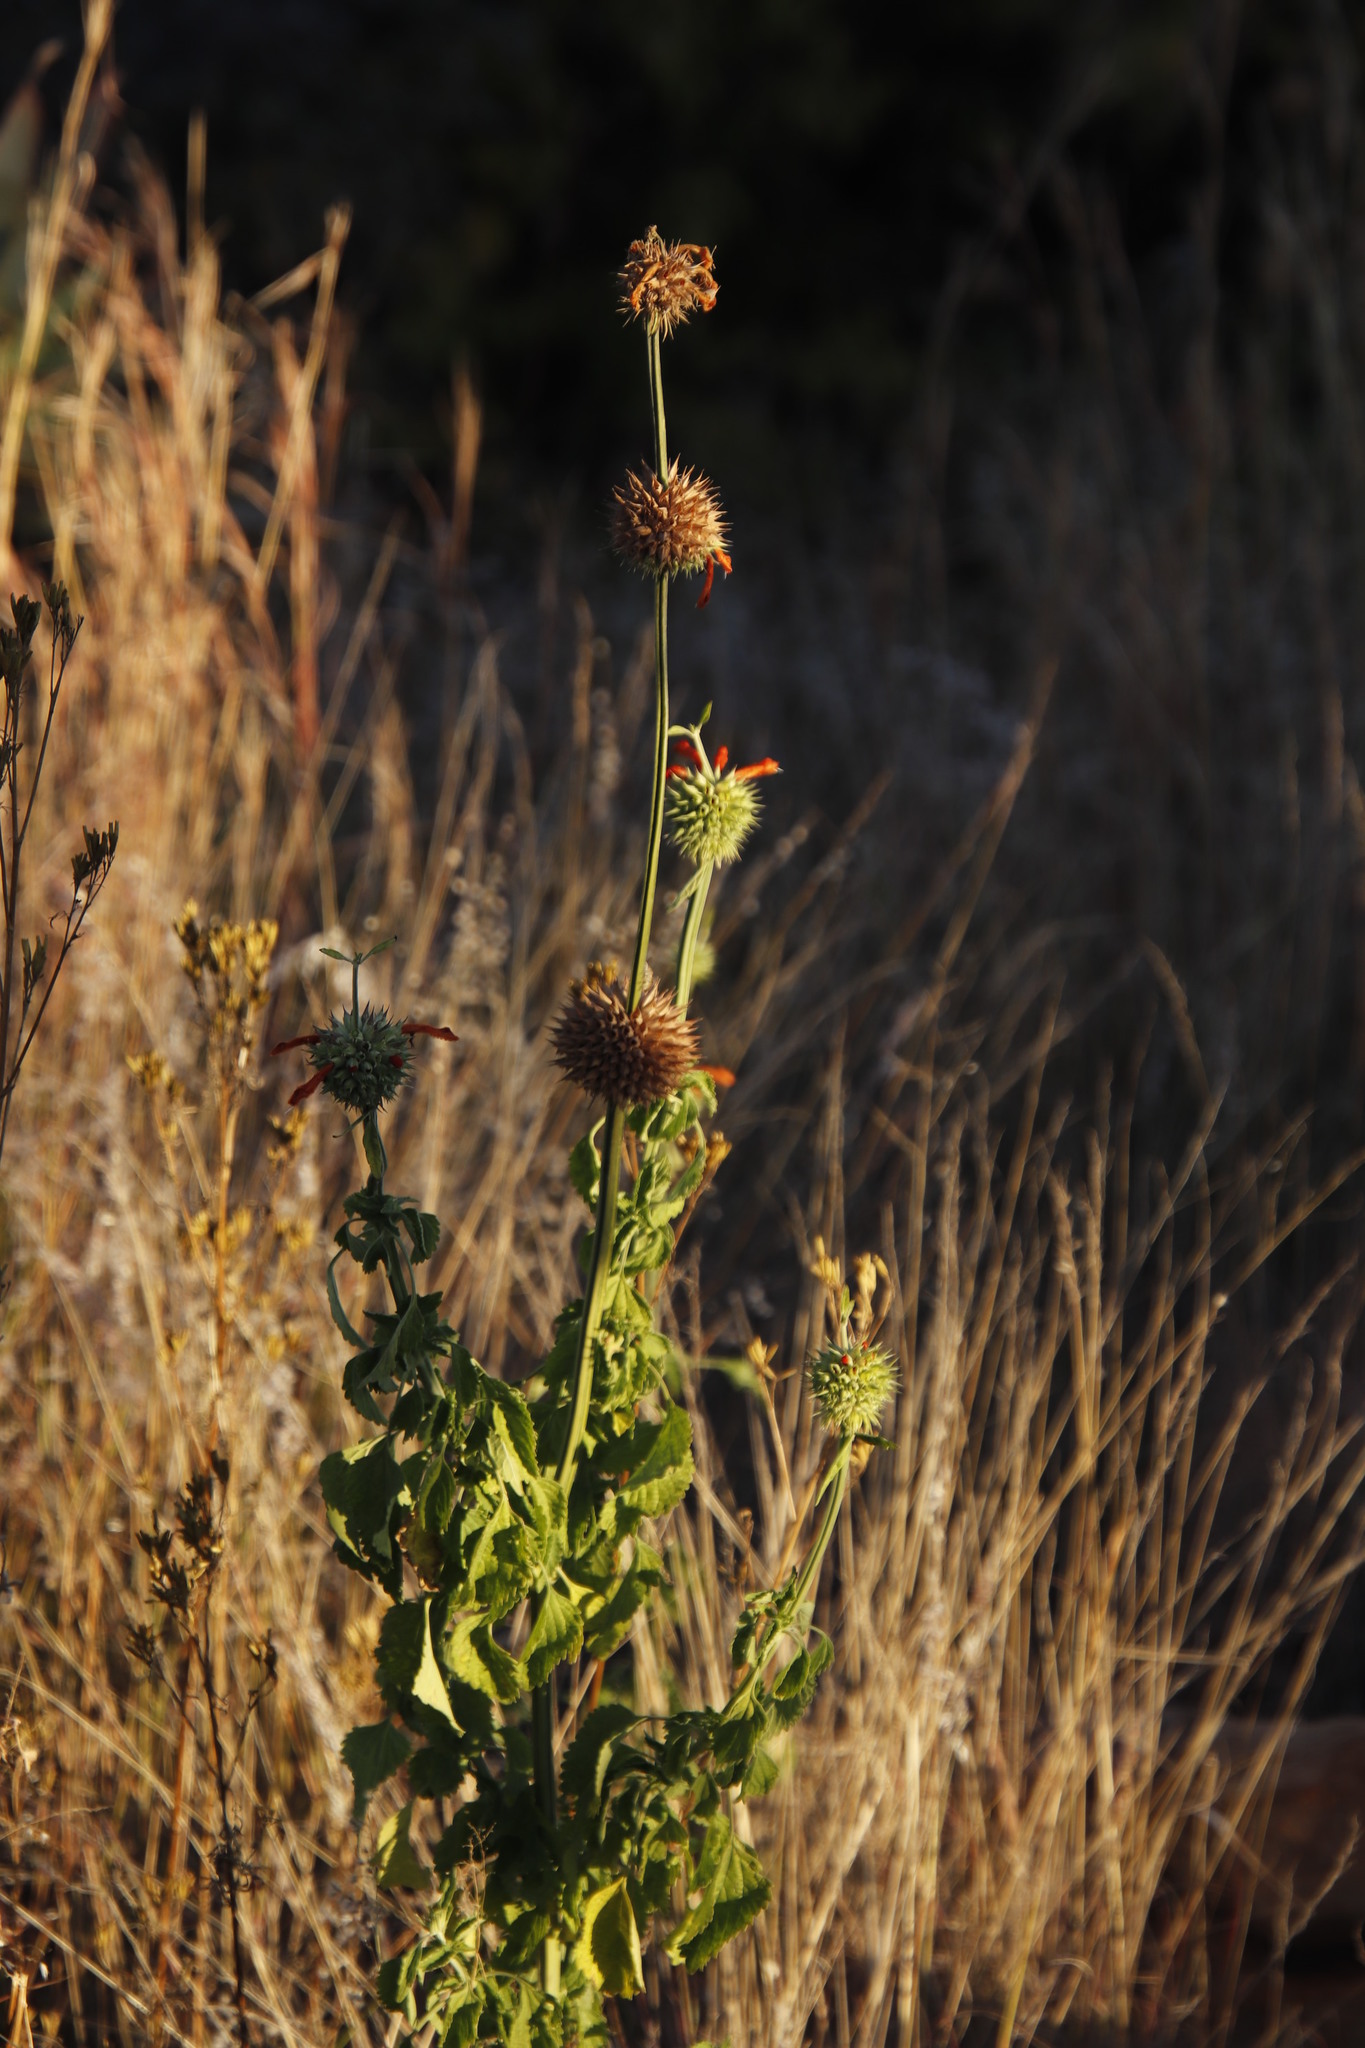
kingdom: Plantae
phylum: Tracheophyta
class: Magnoliopsida
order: Lamiales
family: Lamiaceae
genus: Leonotis
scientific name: Leonotis nepetifolia
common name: Christmas candlestick
